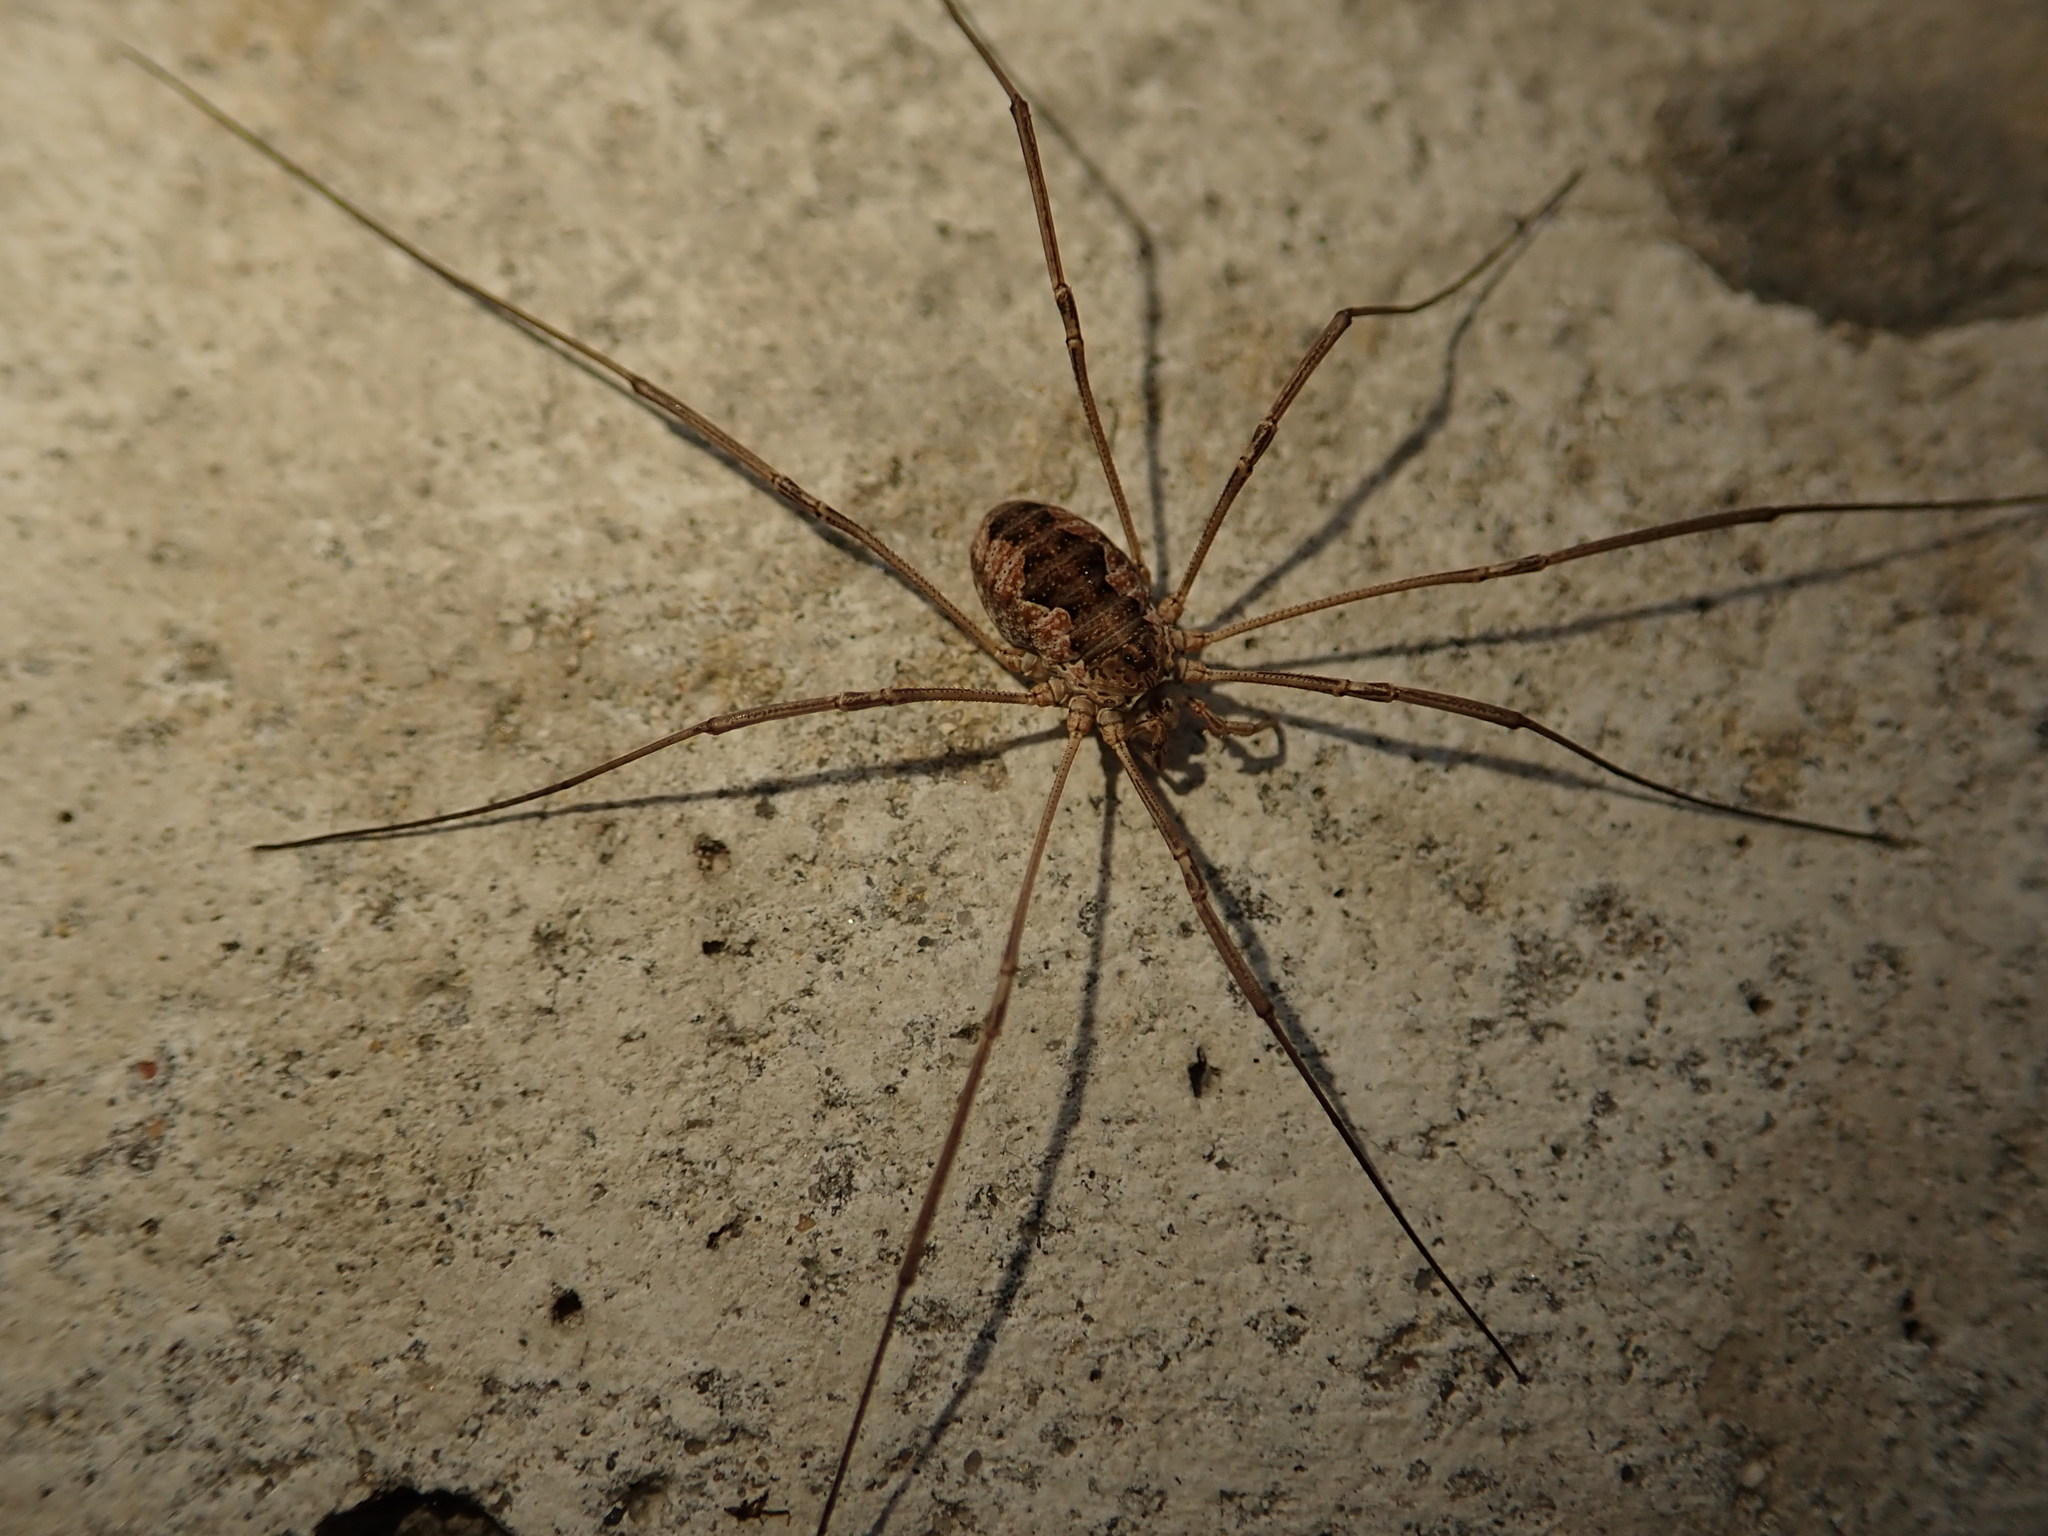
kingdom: Animalia
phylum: Arthropoda
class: Arachnida
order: Opiliones
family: Phalangiidae
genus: Phalangium
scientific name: Phalangium opilio
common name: Daddy longleg
